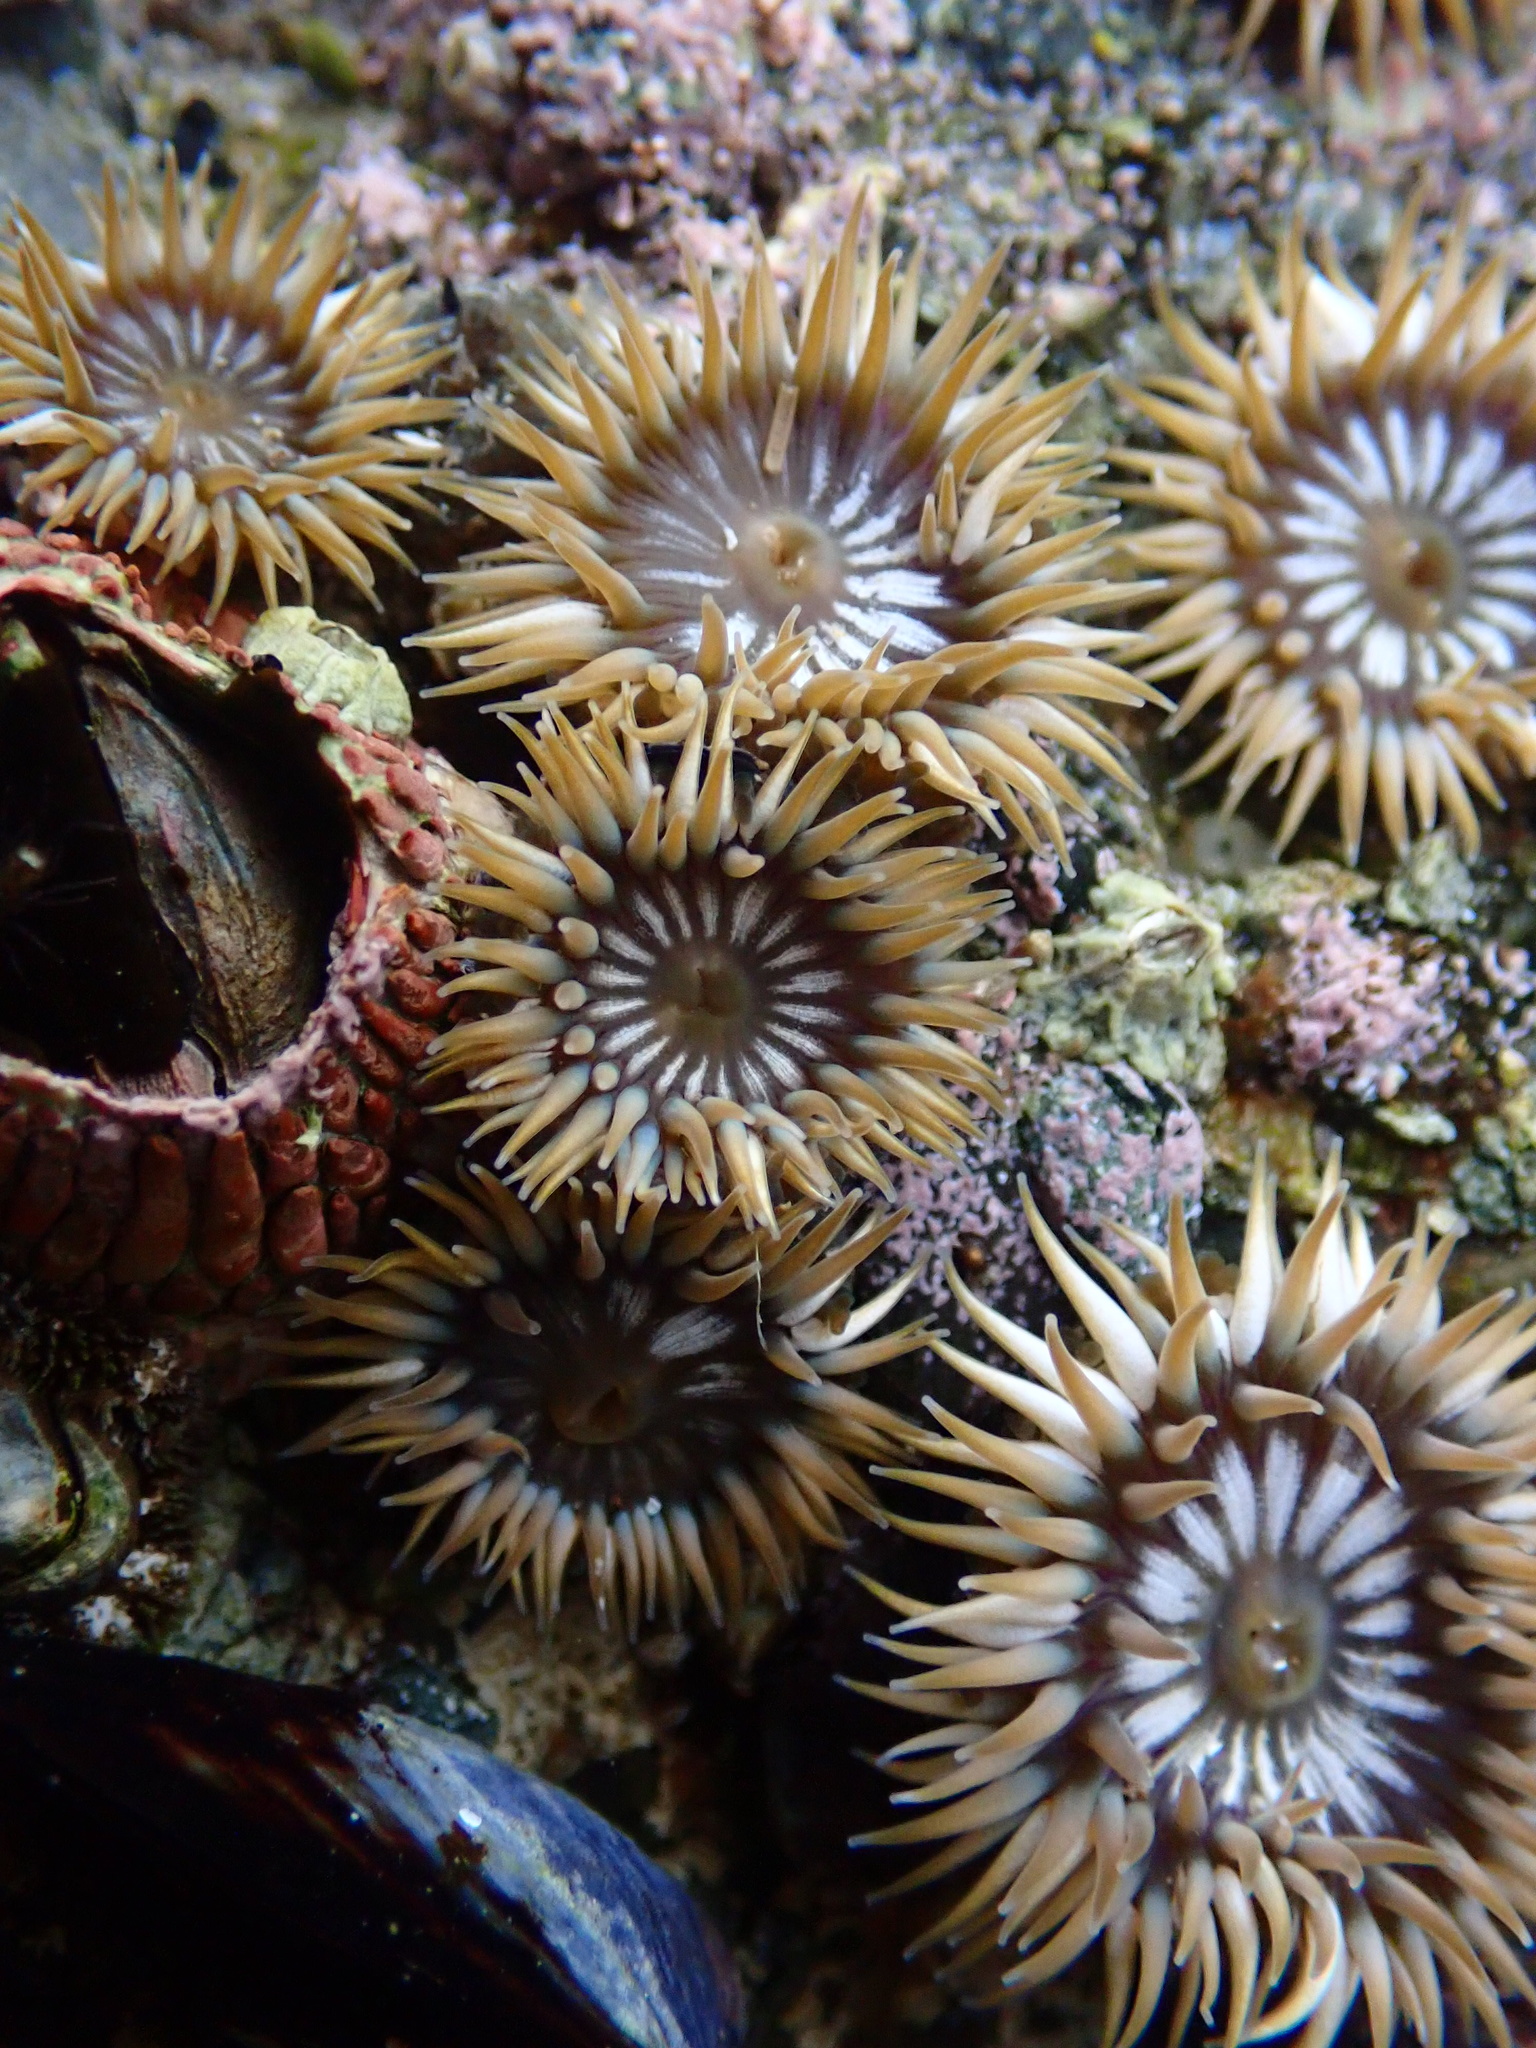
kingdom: Animalia
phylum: Cnidaria
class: Anthozoa
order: Actiniaria
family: Actiniidae
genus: Anthopleura
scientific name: Anthopleura elegantissima
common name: Clonal anemone
